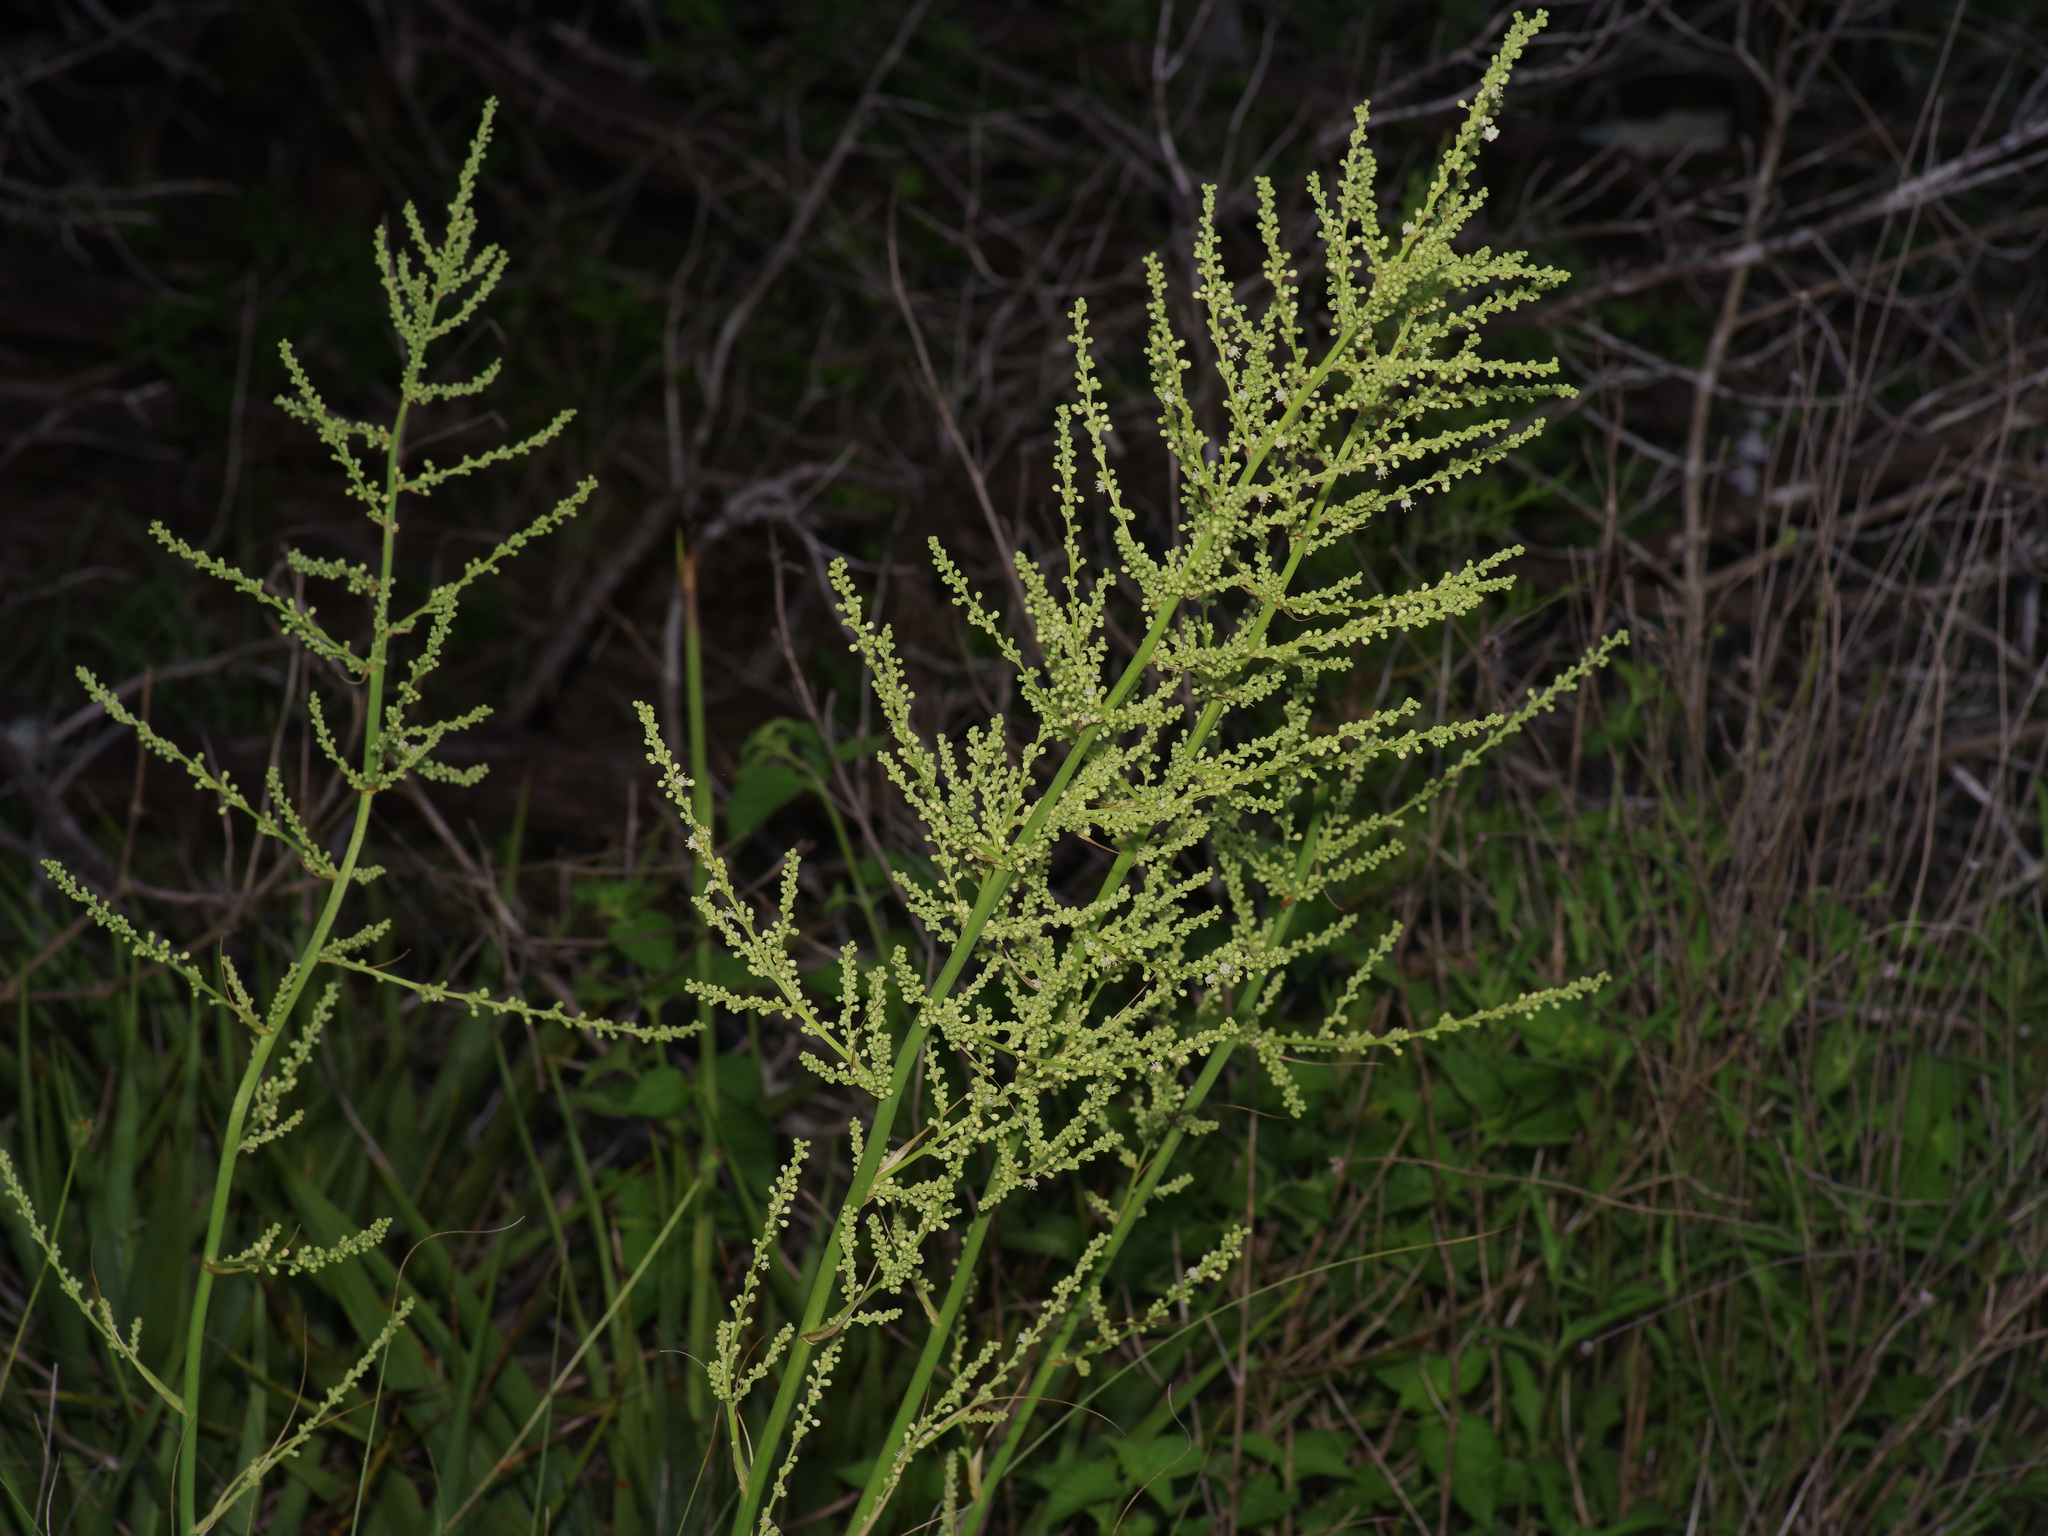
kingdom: Plantae
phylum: Tracheophyta
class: Liliopsida
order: Asparagales
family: Asparagaceae
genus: Nolina
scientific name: Nolina lindheimeriana
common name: Lindheimer's bear-grass
